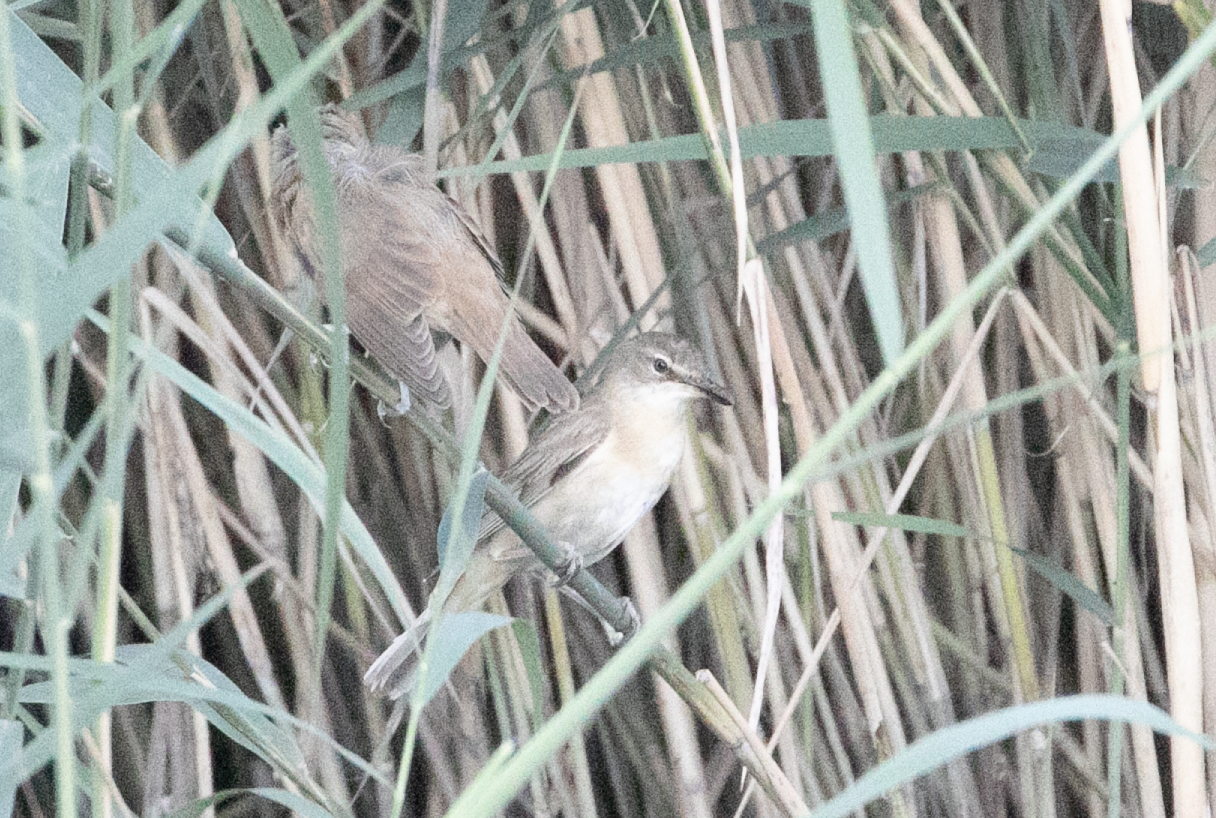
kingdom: Animalia
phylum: Chordata
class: Aves
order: Passeriformes
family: Acrocephalidae
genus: Acrocephalus
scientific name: Acrocephalus arundinaceus
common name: Great reed warbler
